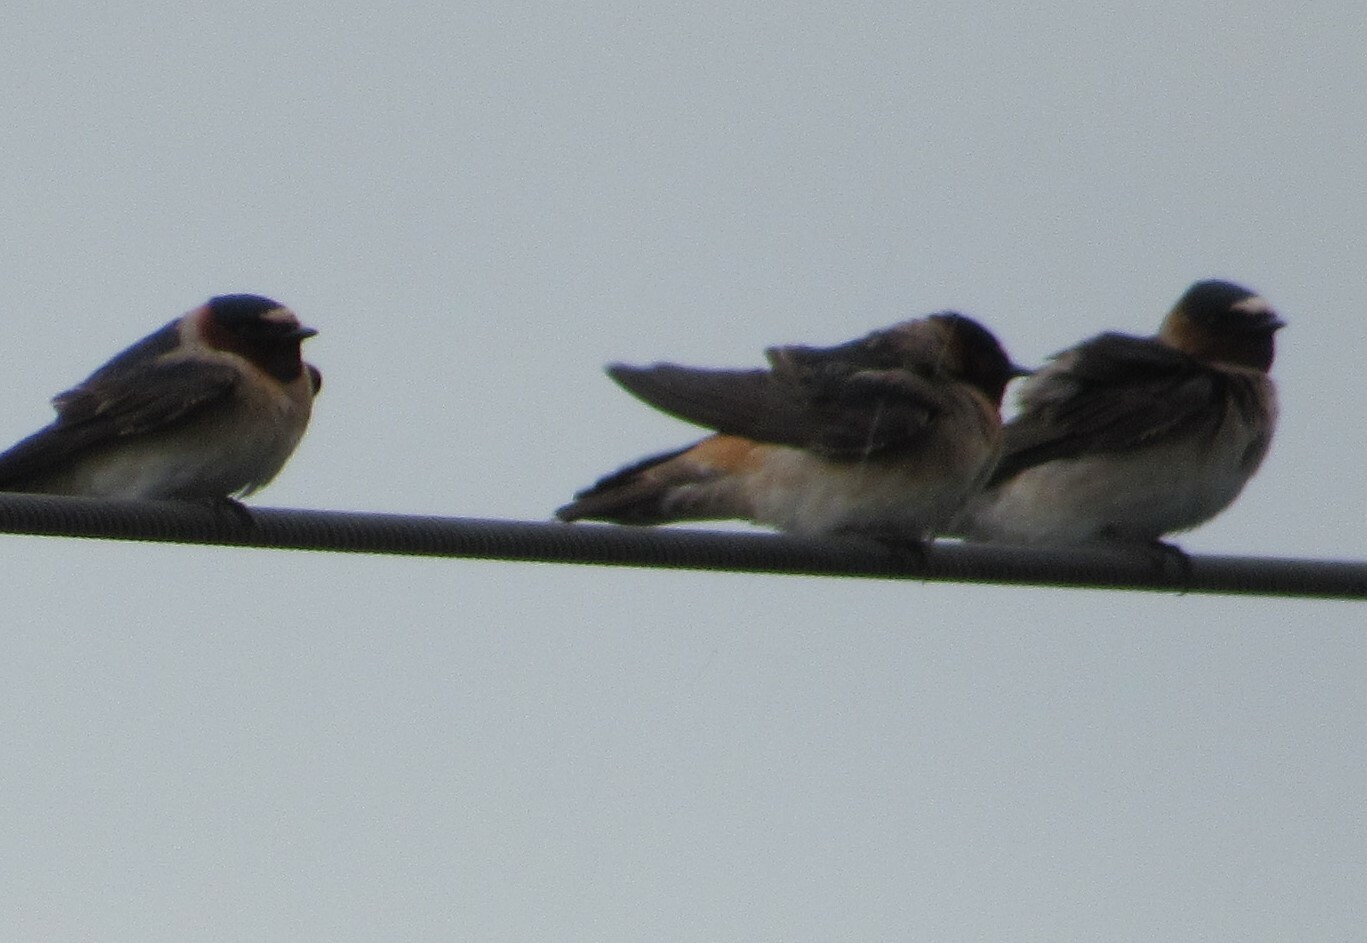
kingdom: Animalia
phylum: Chordata
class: Aves
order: Passeriformes
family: Hirundinidae
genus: Petrochelidon
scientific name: Petrochelidon pyrrhonota
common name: American cliff swallow
